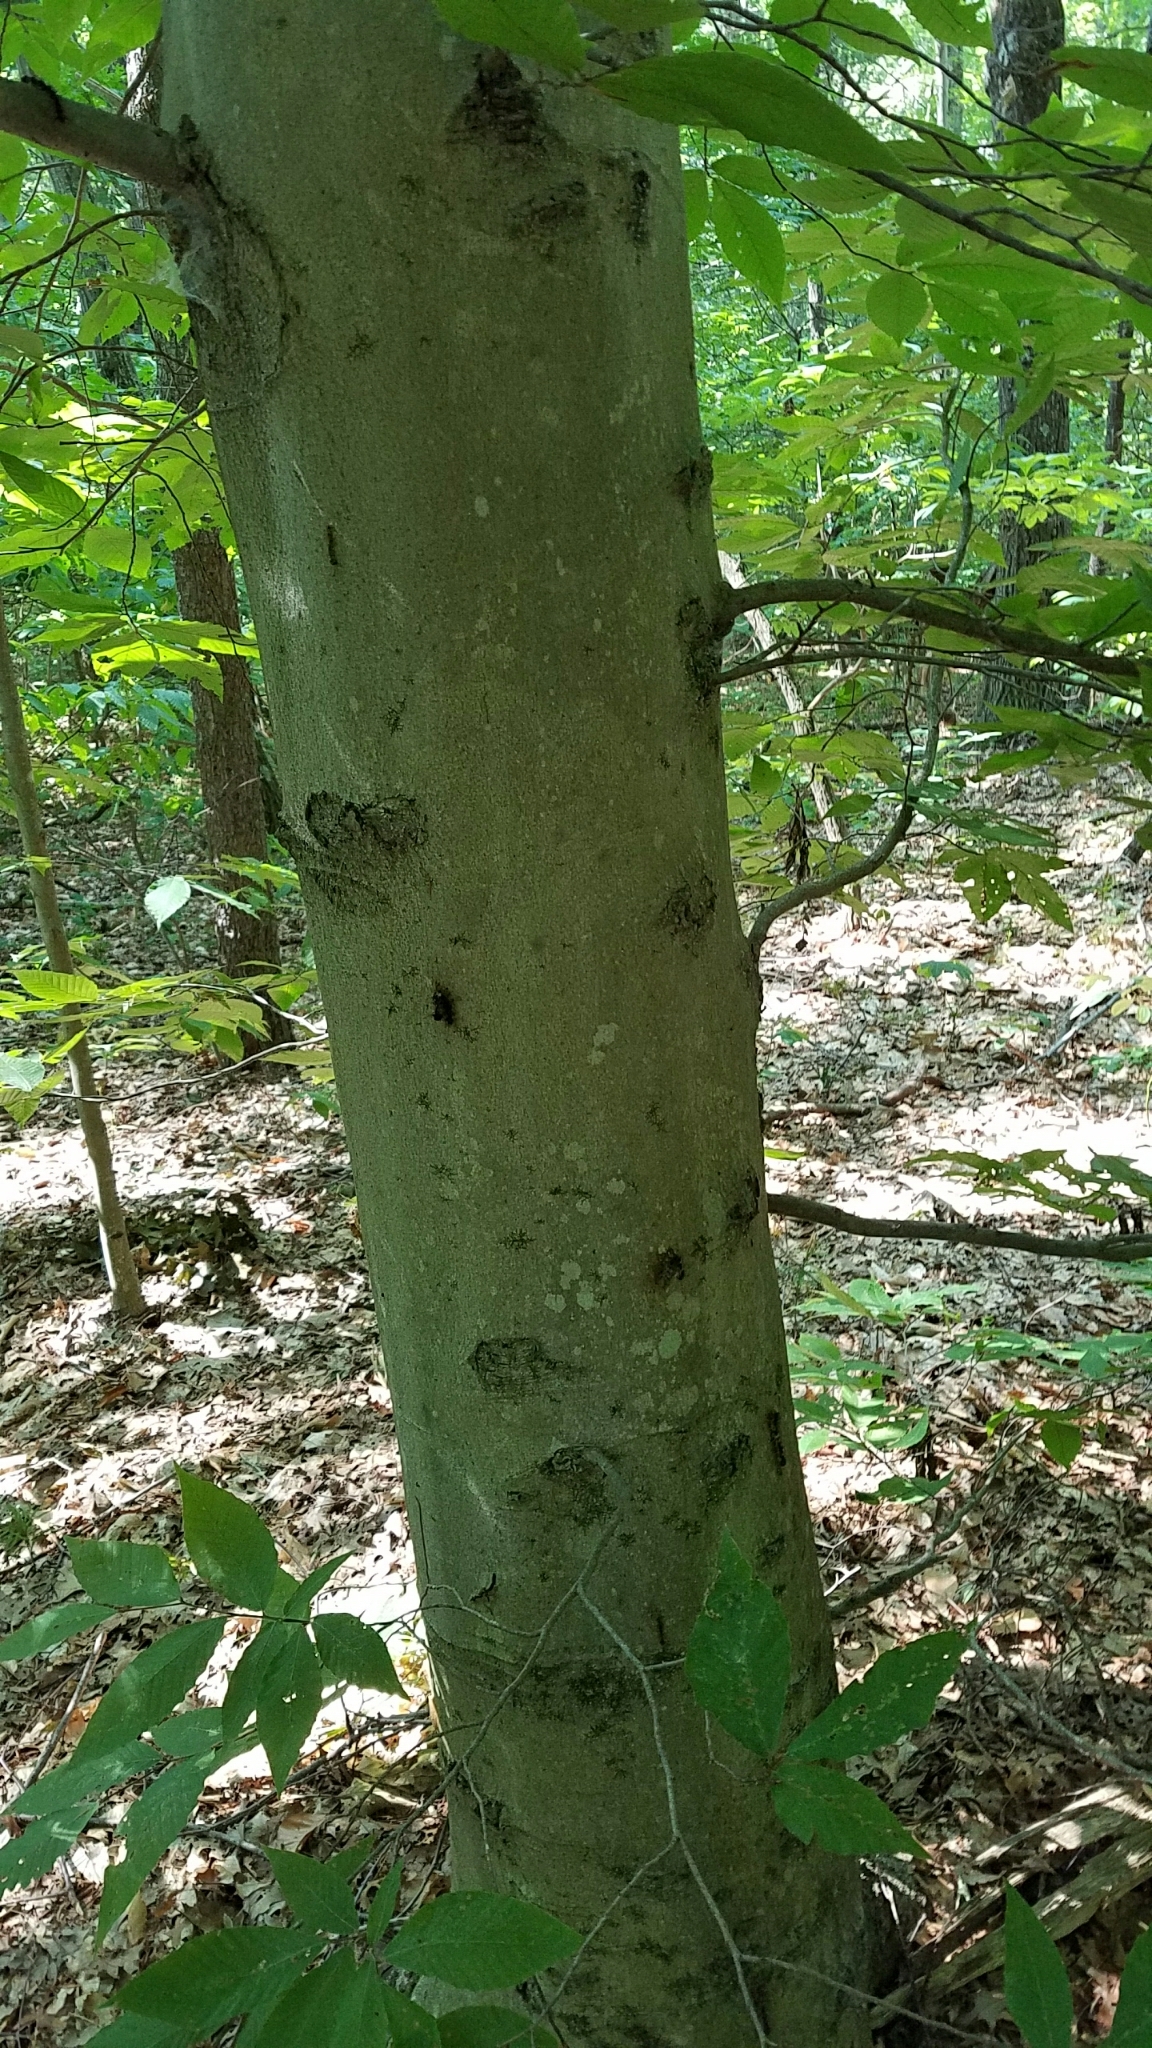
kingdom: Plantae
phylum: Tracheophyta
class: Magnoliopsida
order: Fagales
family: Fagaceae
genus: Fagus
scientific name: Fagus grandifolia
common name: American beech
